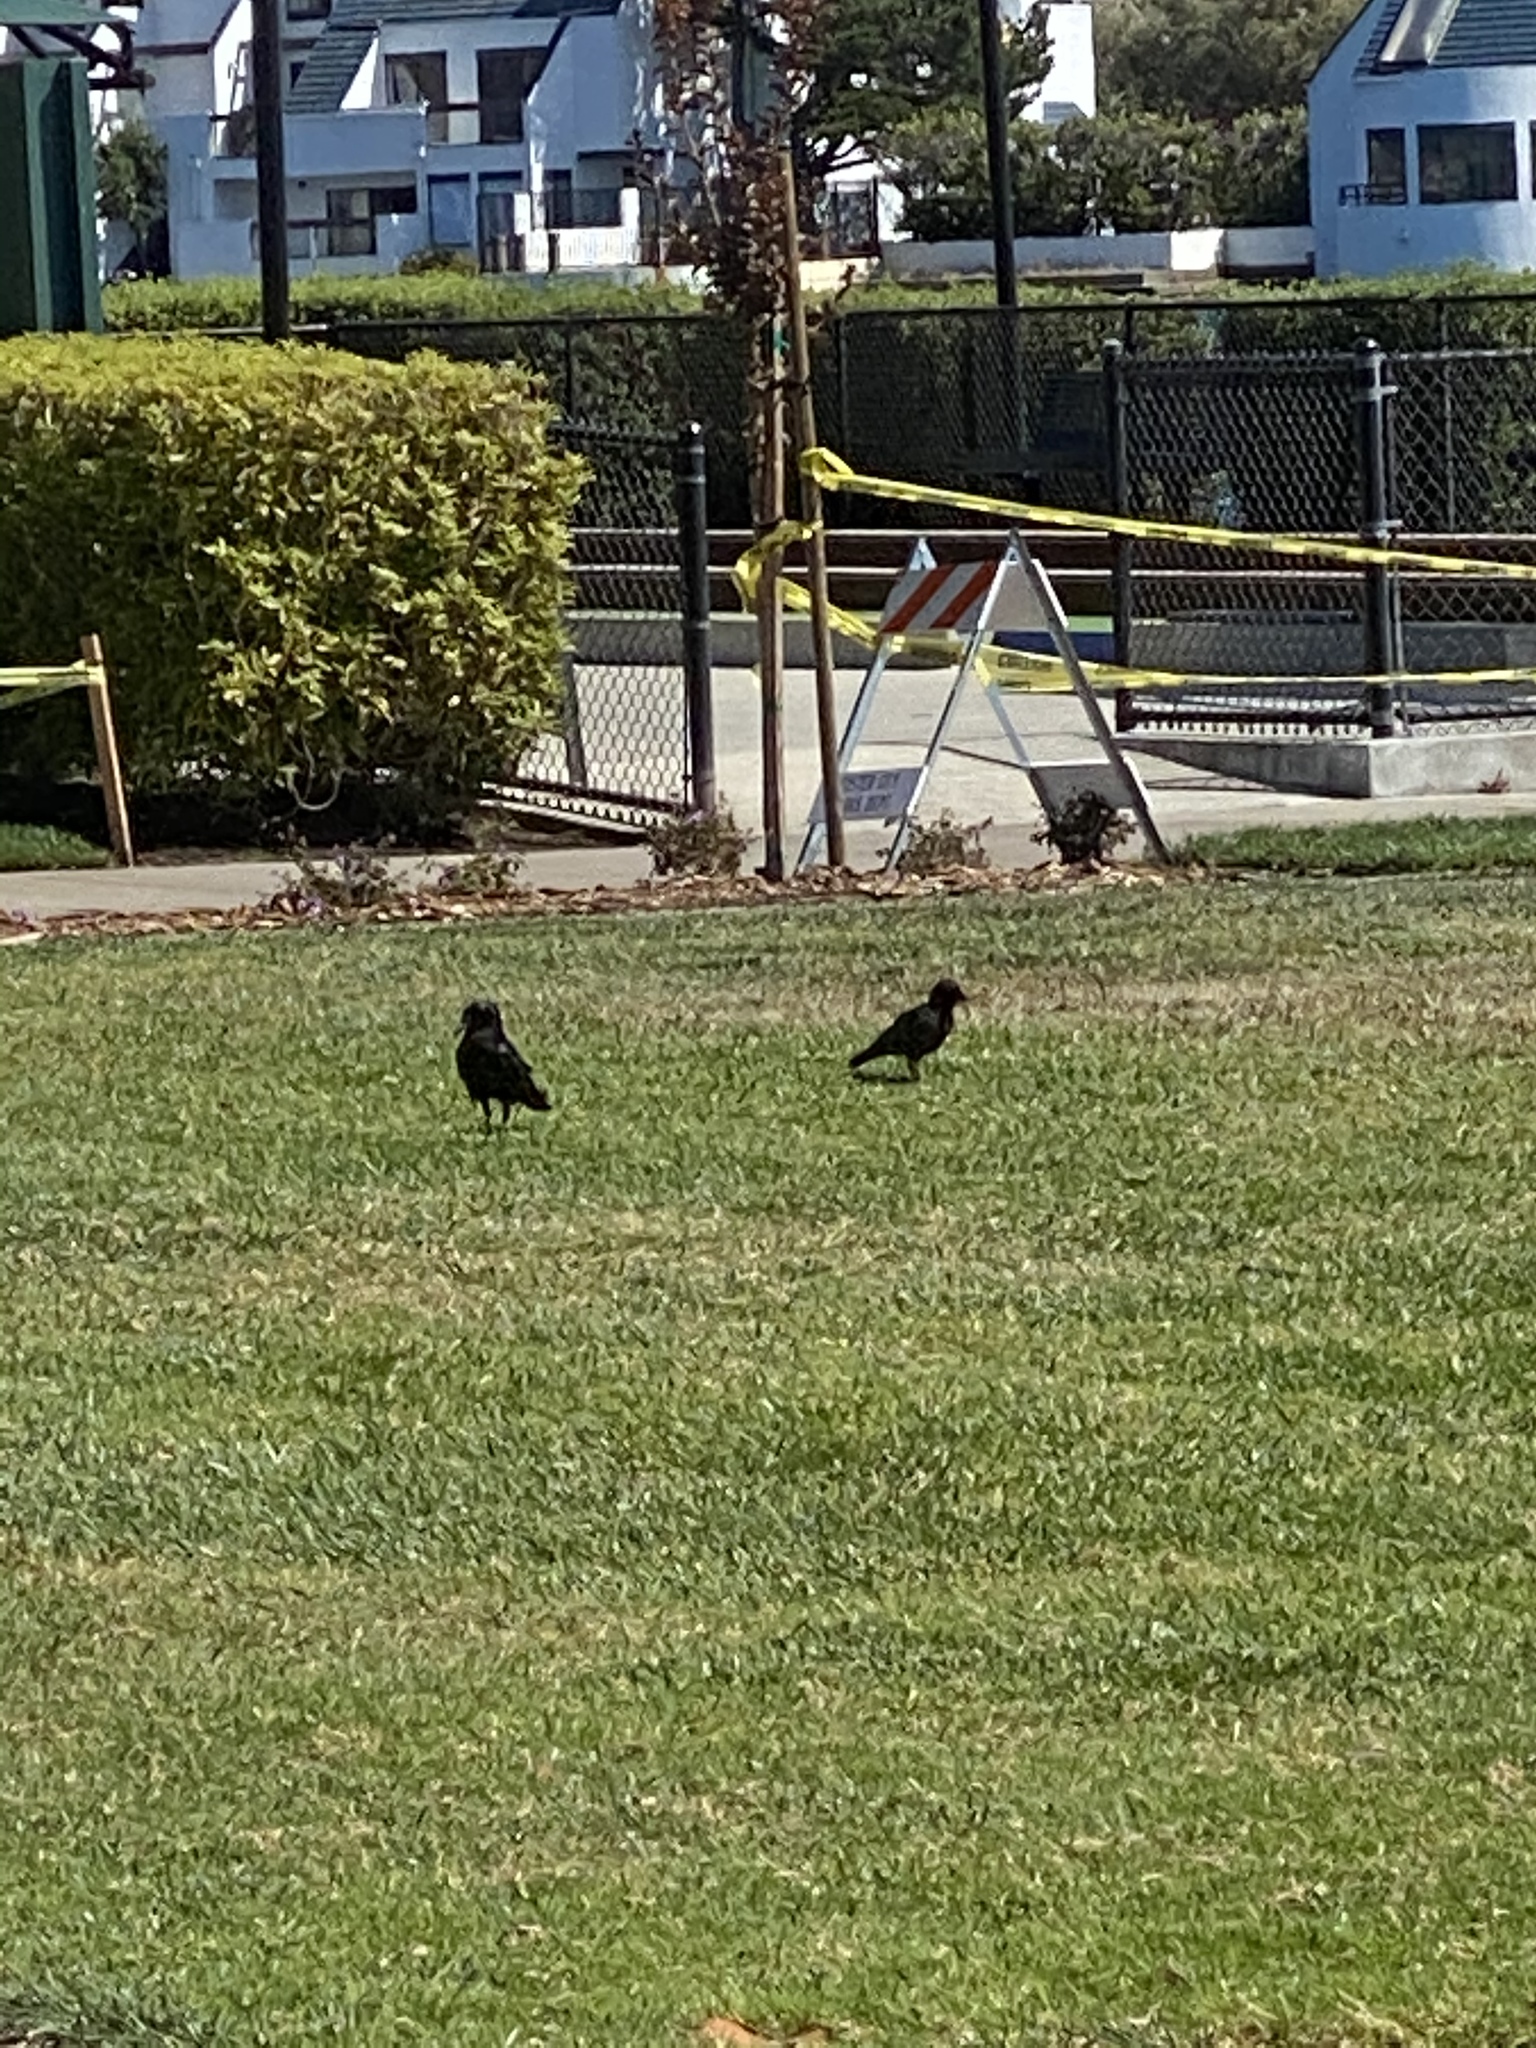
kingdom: Animalia
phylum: Chordata
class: Aves
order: Passeriformes
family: Corvidae
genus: Corvus
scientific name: Corvus brachyrhynchos
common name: American crow
